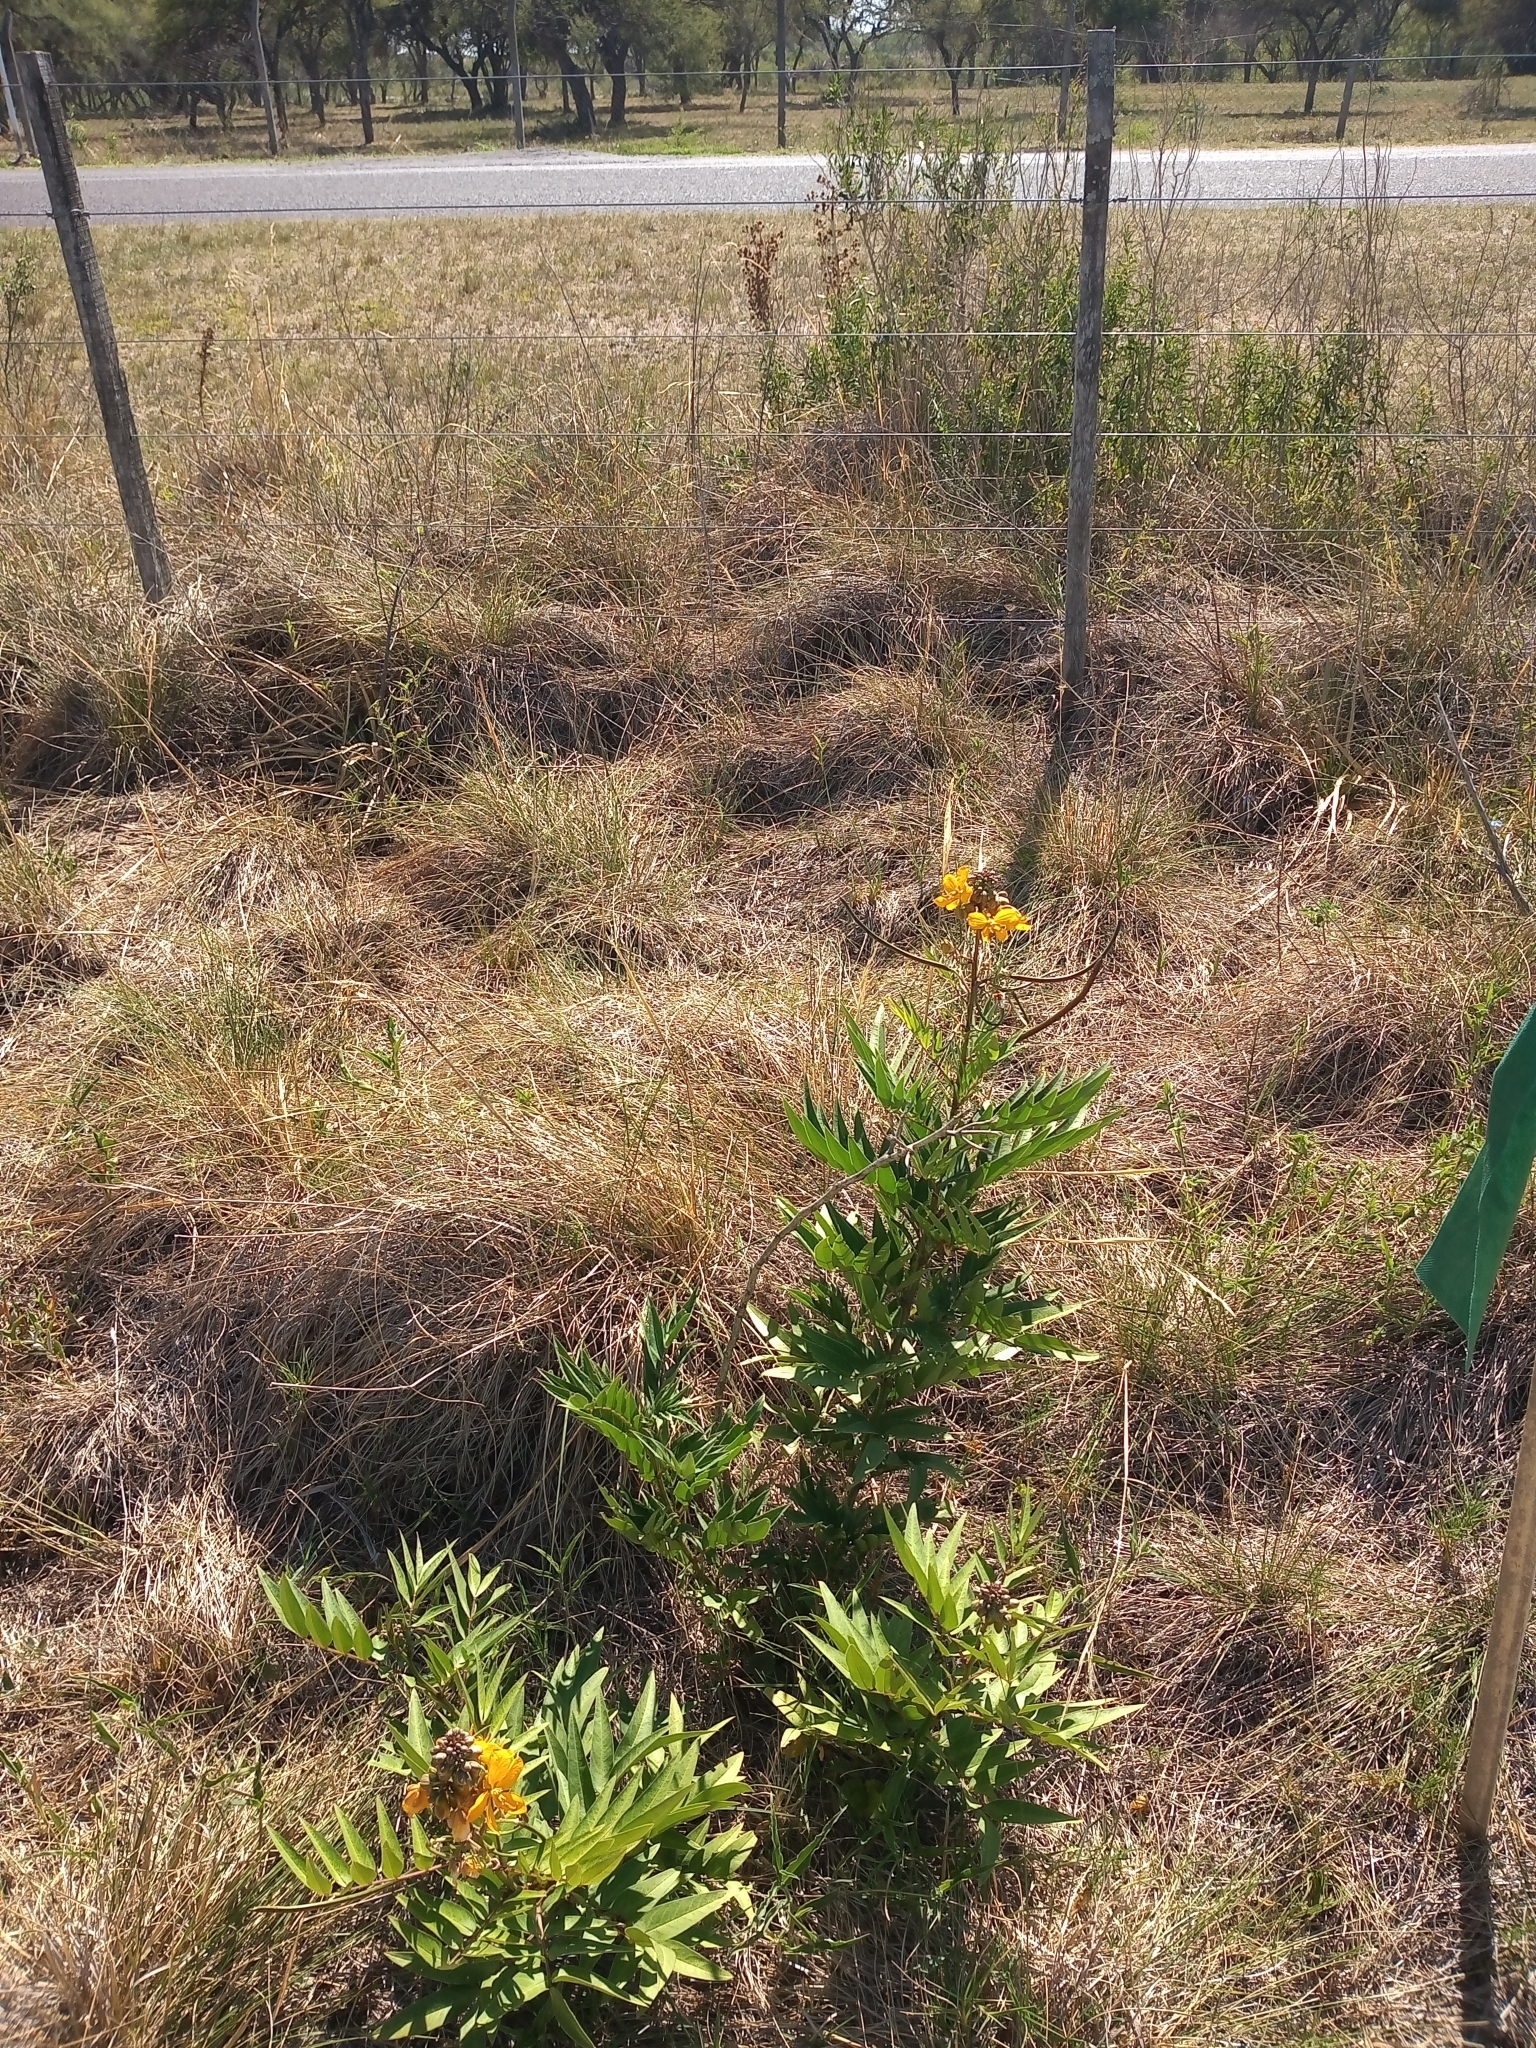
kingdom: Plantae
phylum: Tracheophyta
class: Magnoliopsida
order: Fabales
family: Fabaceae
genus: Senna
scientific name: Senna scabriuscula
